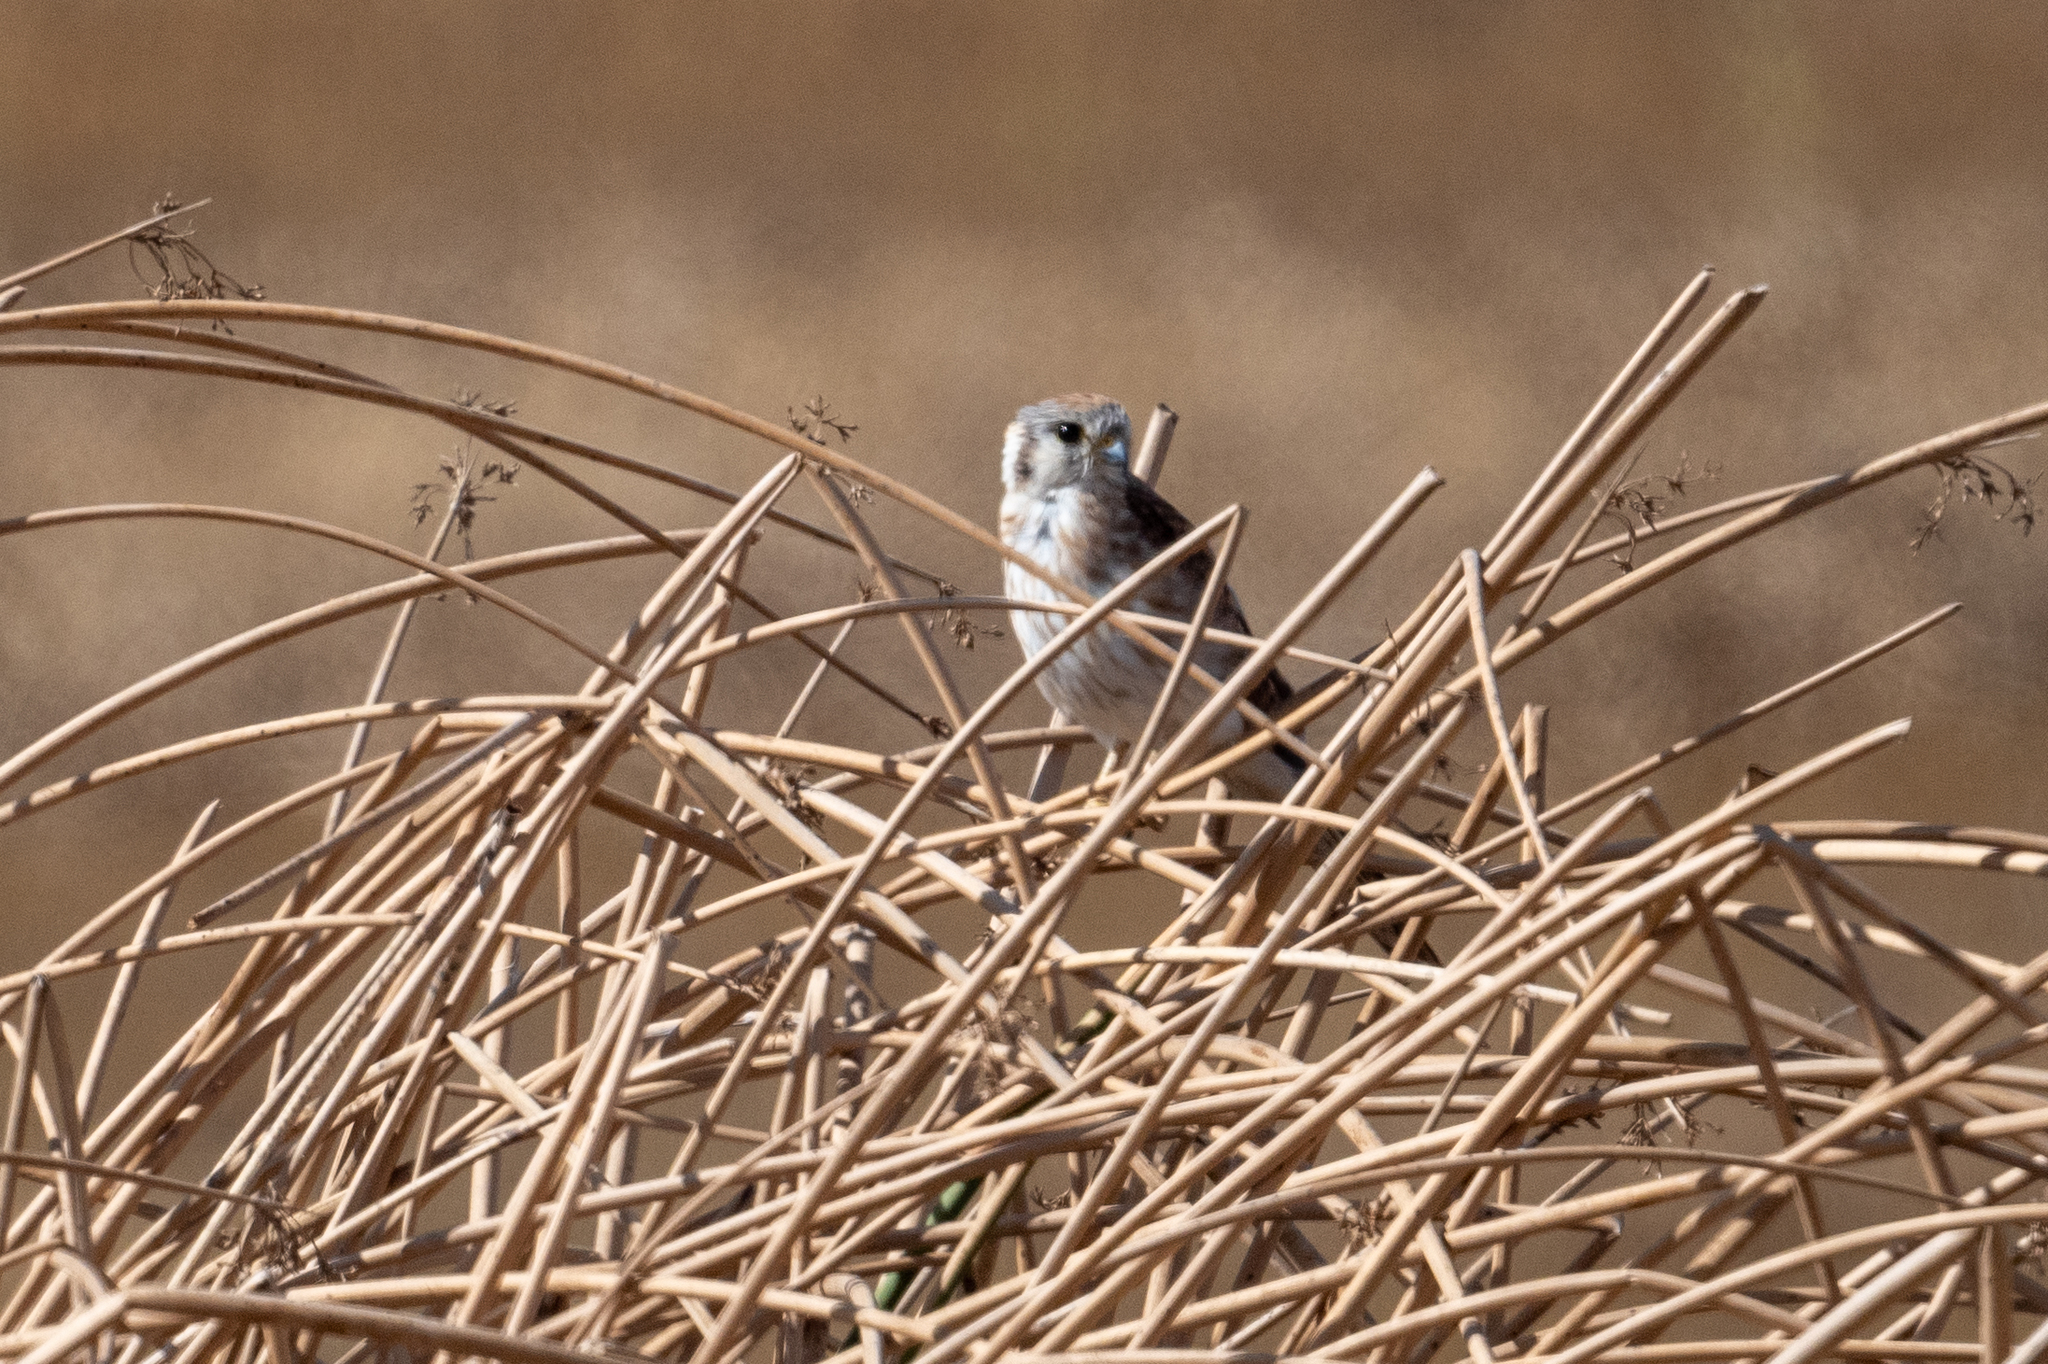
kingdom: Animalia
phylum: Chordata
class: Aves
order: Falconiformes
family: Falconidae
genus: Falco
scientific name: Falco sparverius
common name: American kestrel
